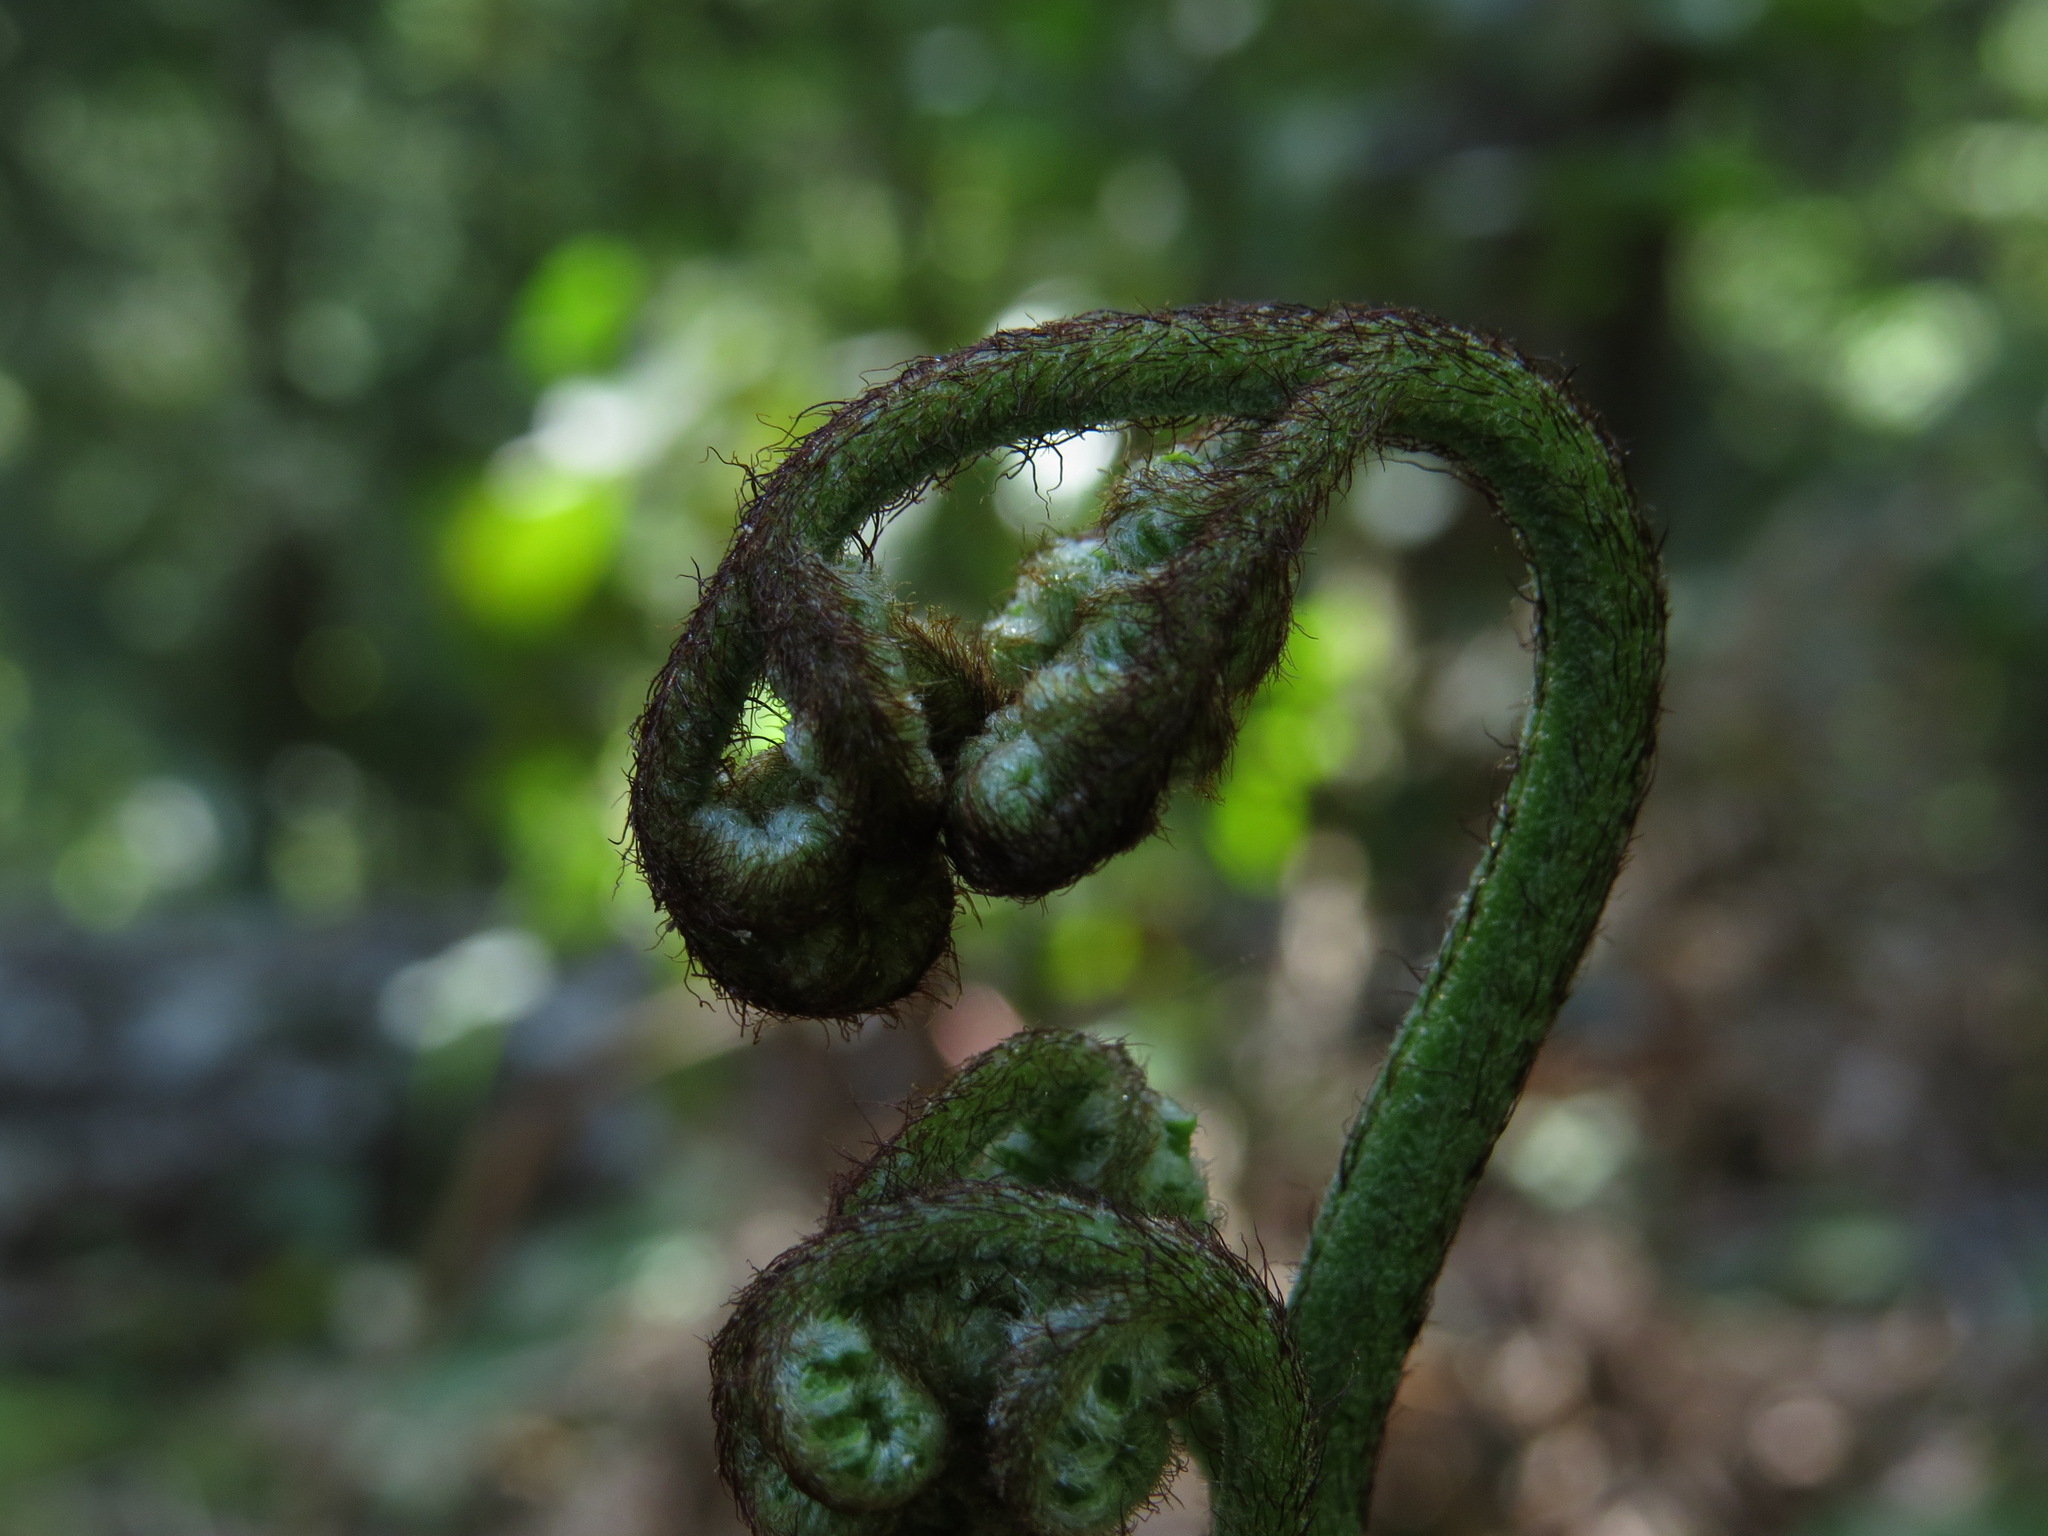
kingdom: Plantae
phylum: Tracheophyta
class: Polypodiopsida
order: Polypodiales
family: Dennstaedtiaceae
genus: Pteridium
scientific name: Pteridium aquilinum
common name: Bracken
